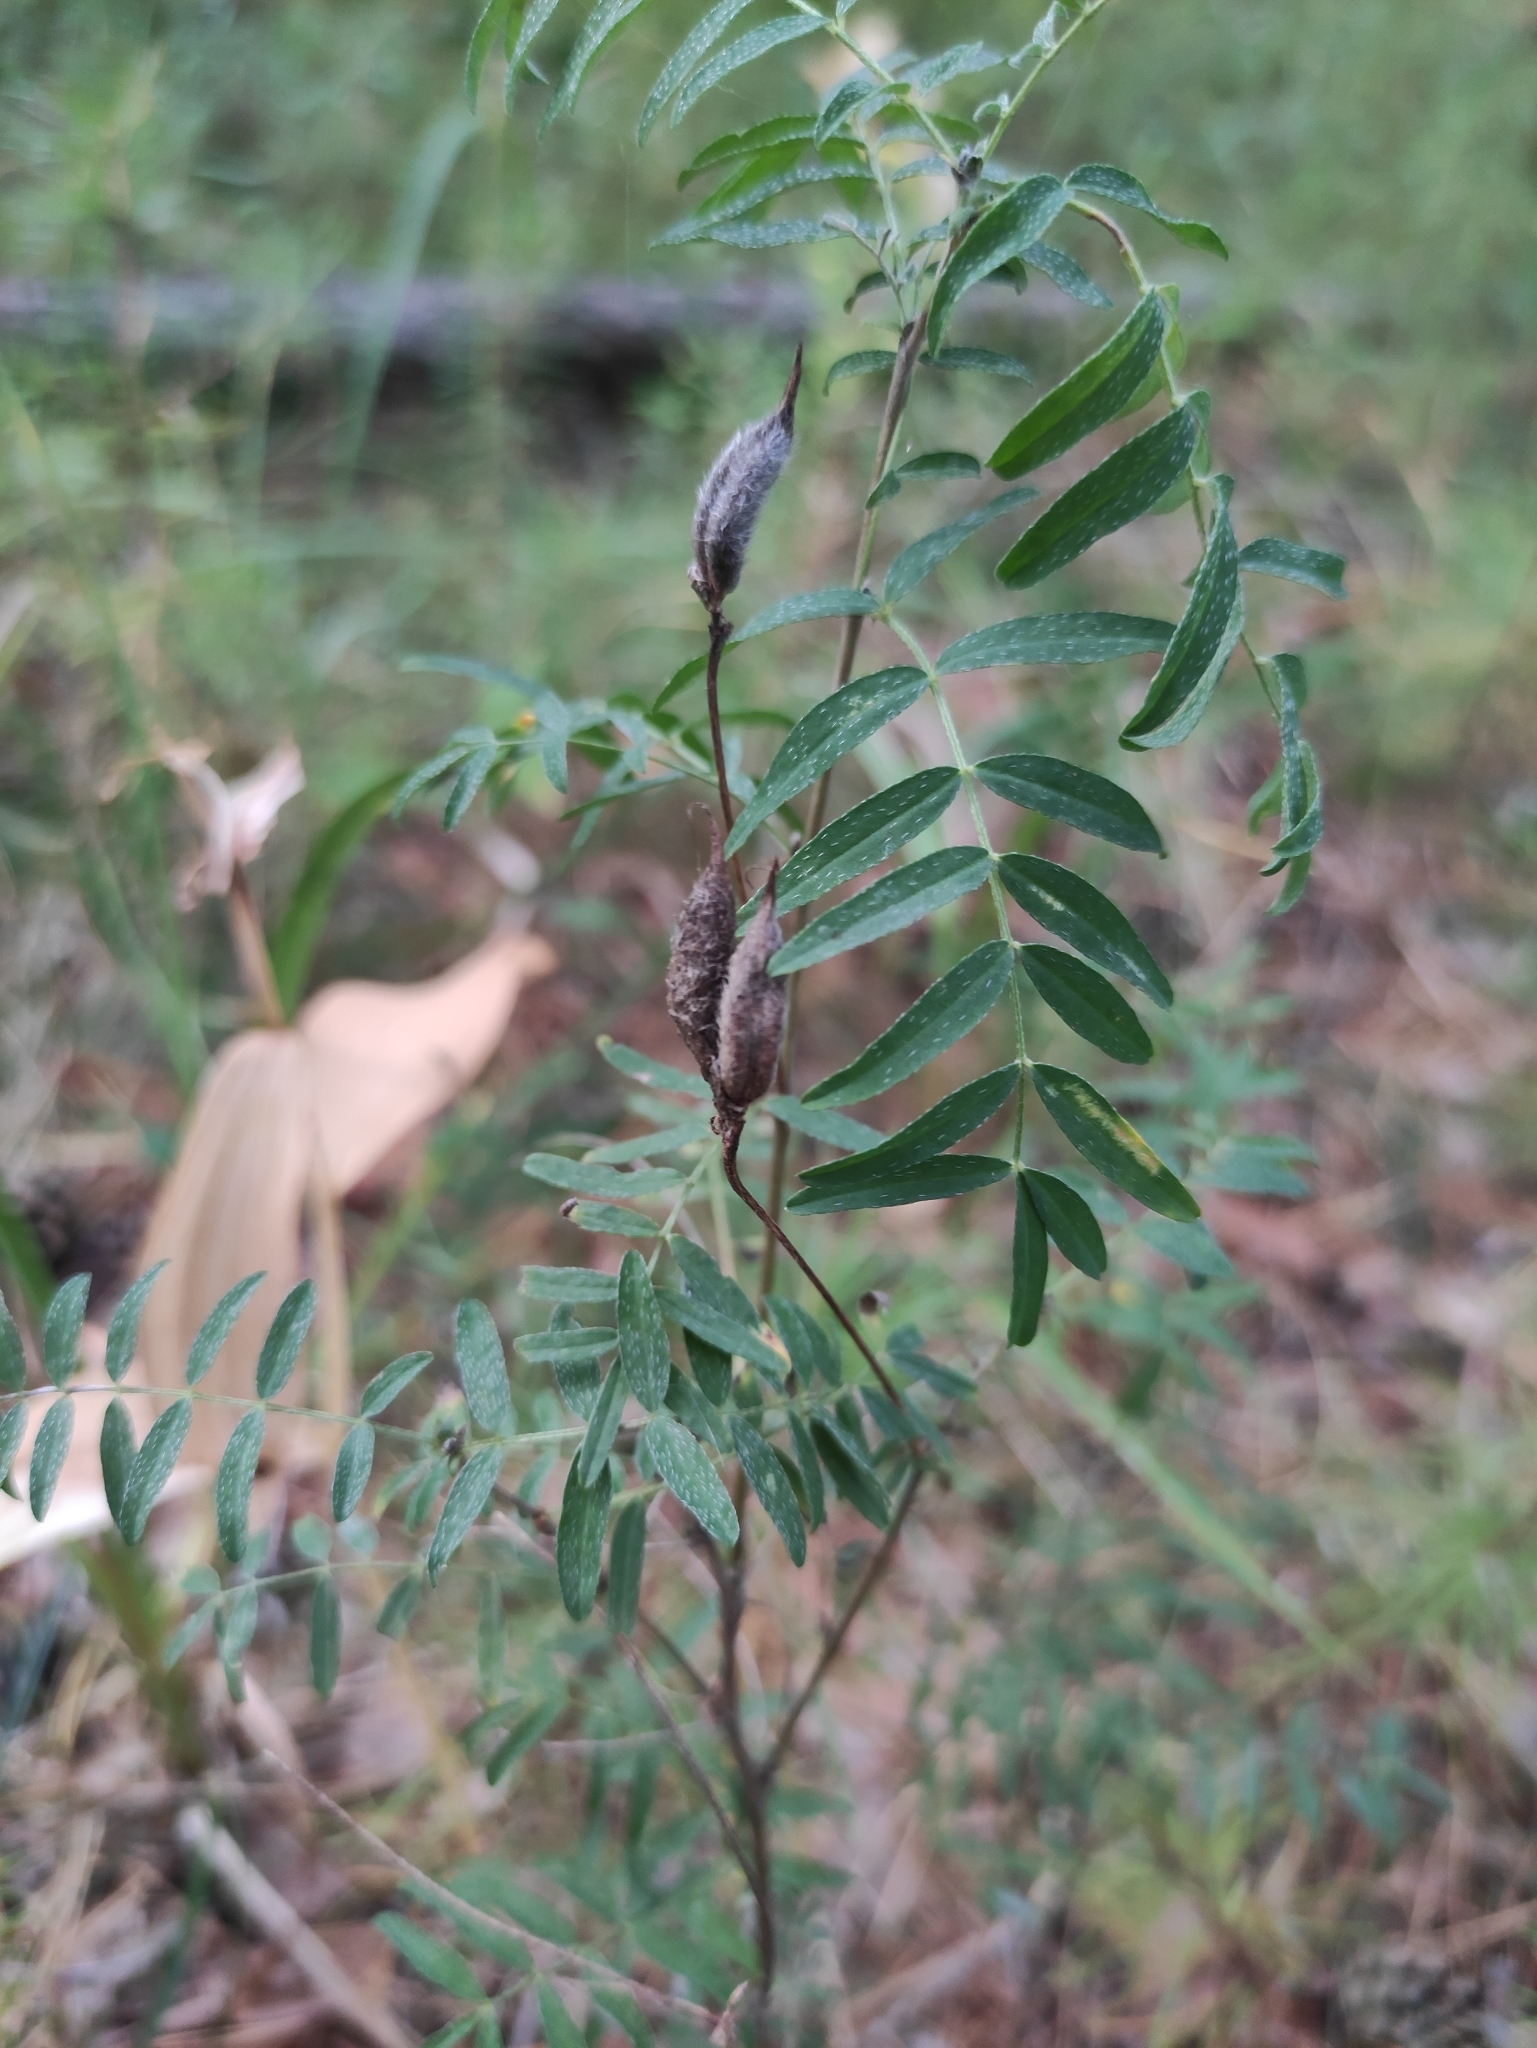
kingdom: Plantae
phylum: Tracheophyta
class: Magnoliopsida
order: Fabales
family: Fabaceae
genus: Astragalus
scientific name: Astragalus syriacus
